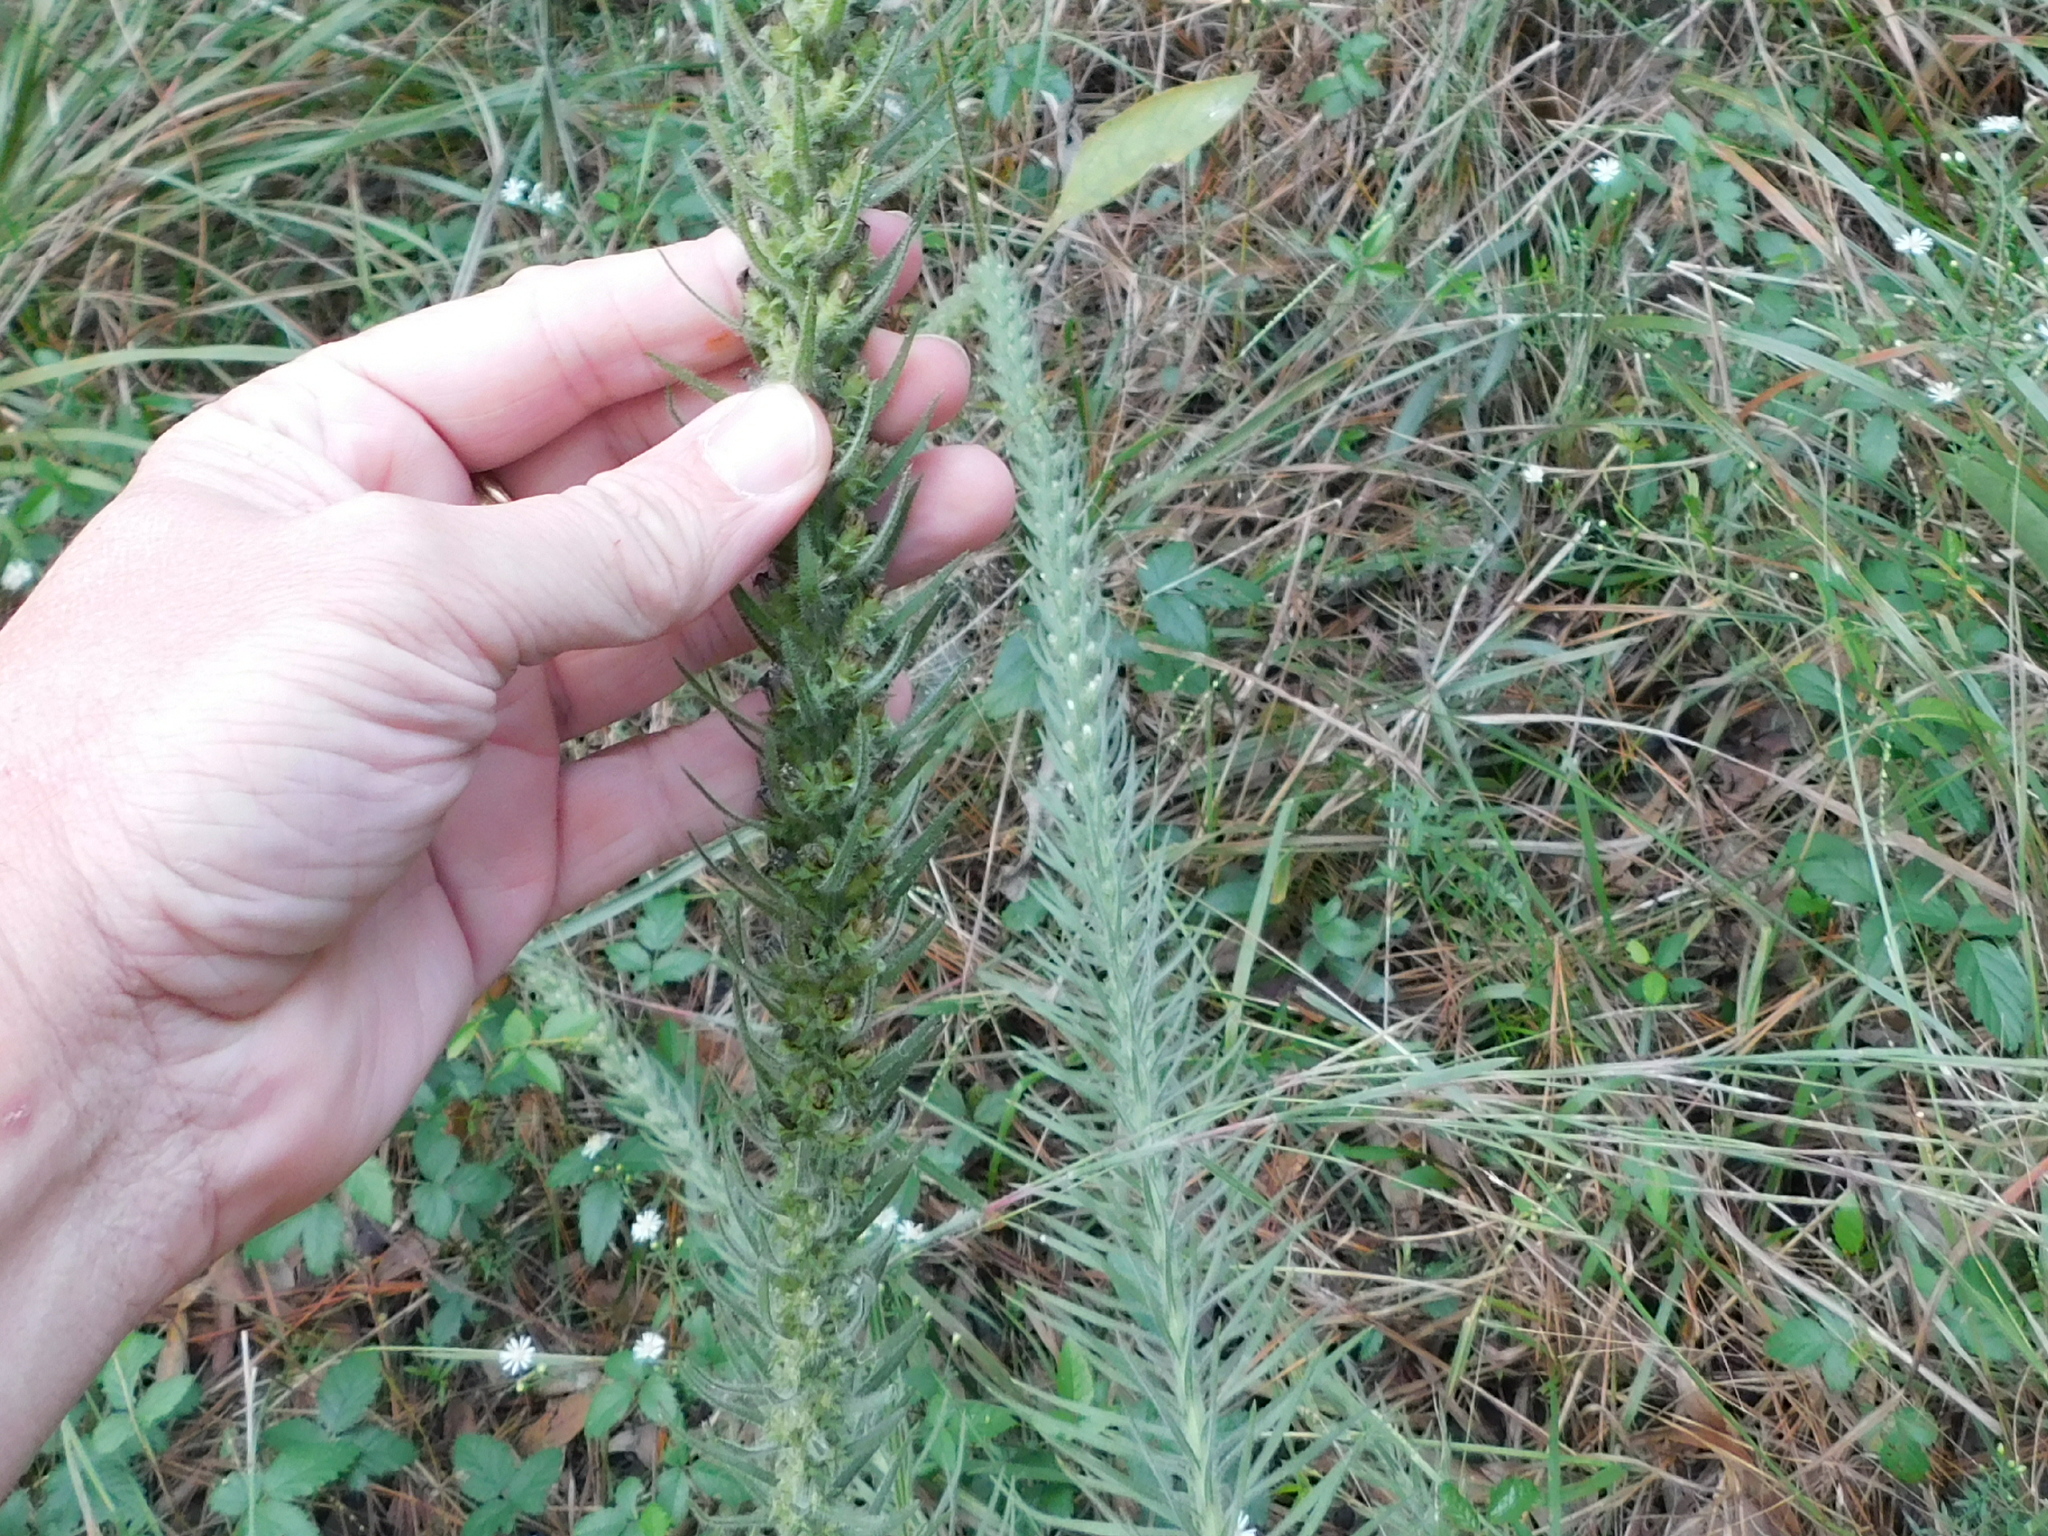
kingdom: Plantae
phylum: Tracheophyta
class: Magnoliopsida
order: Asterales
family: Asteraceae
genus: Liatris
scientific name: Liatris pycnostachya
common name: Cattail gayfeather
